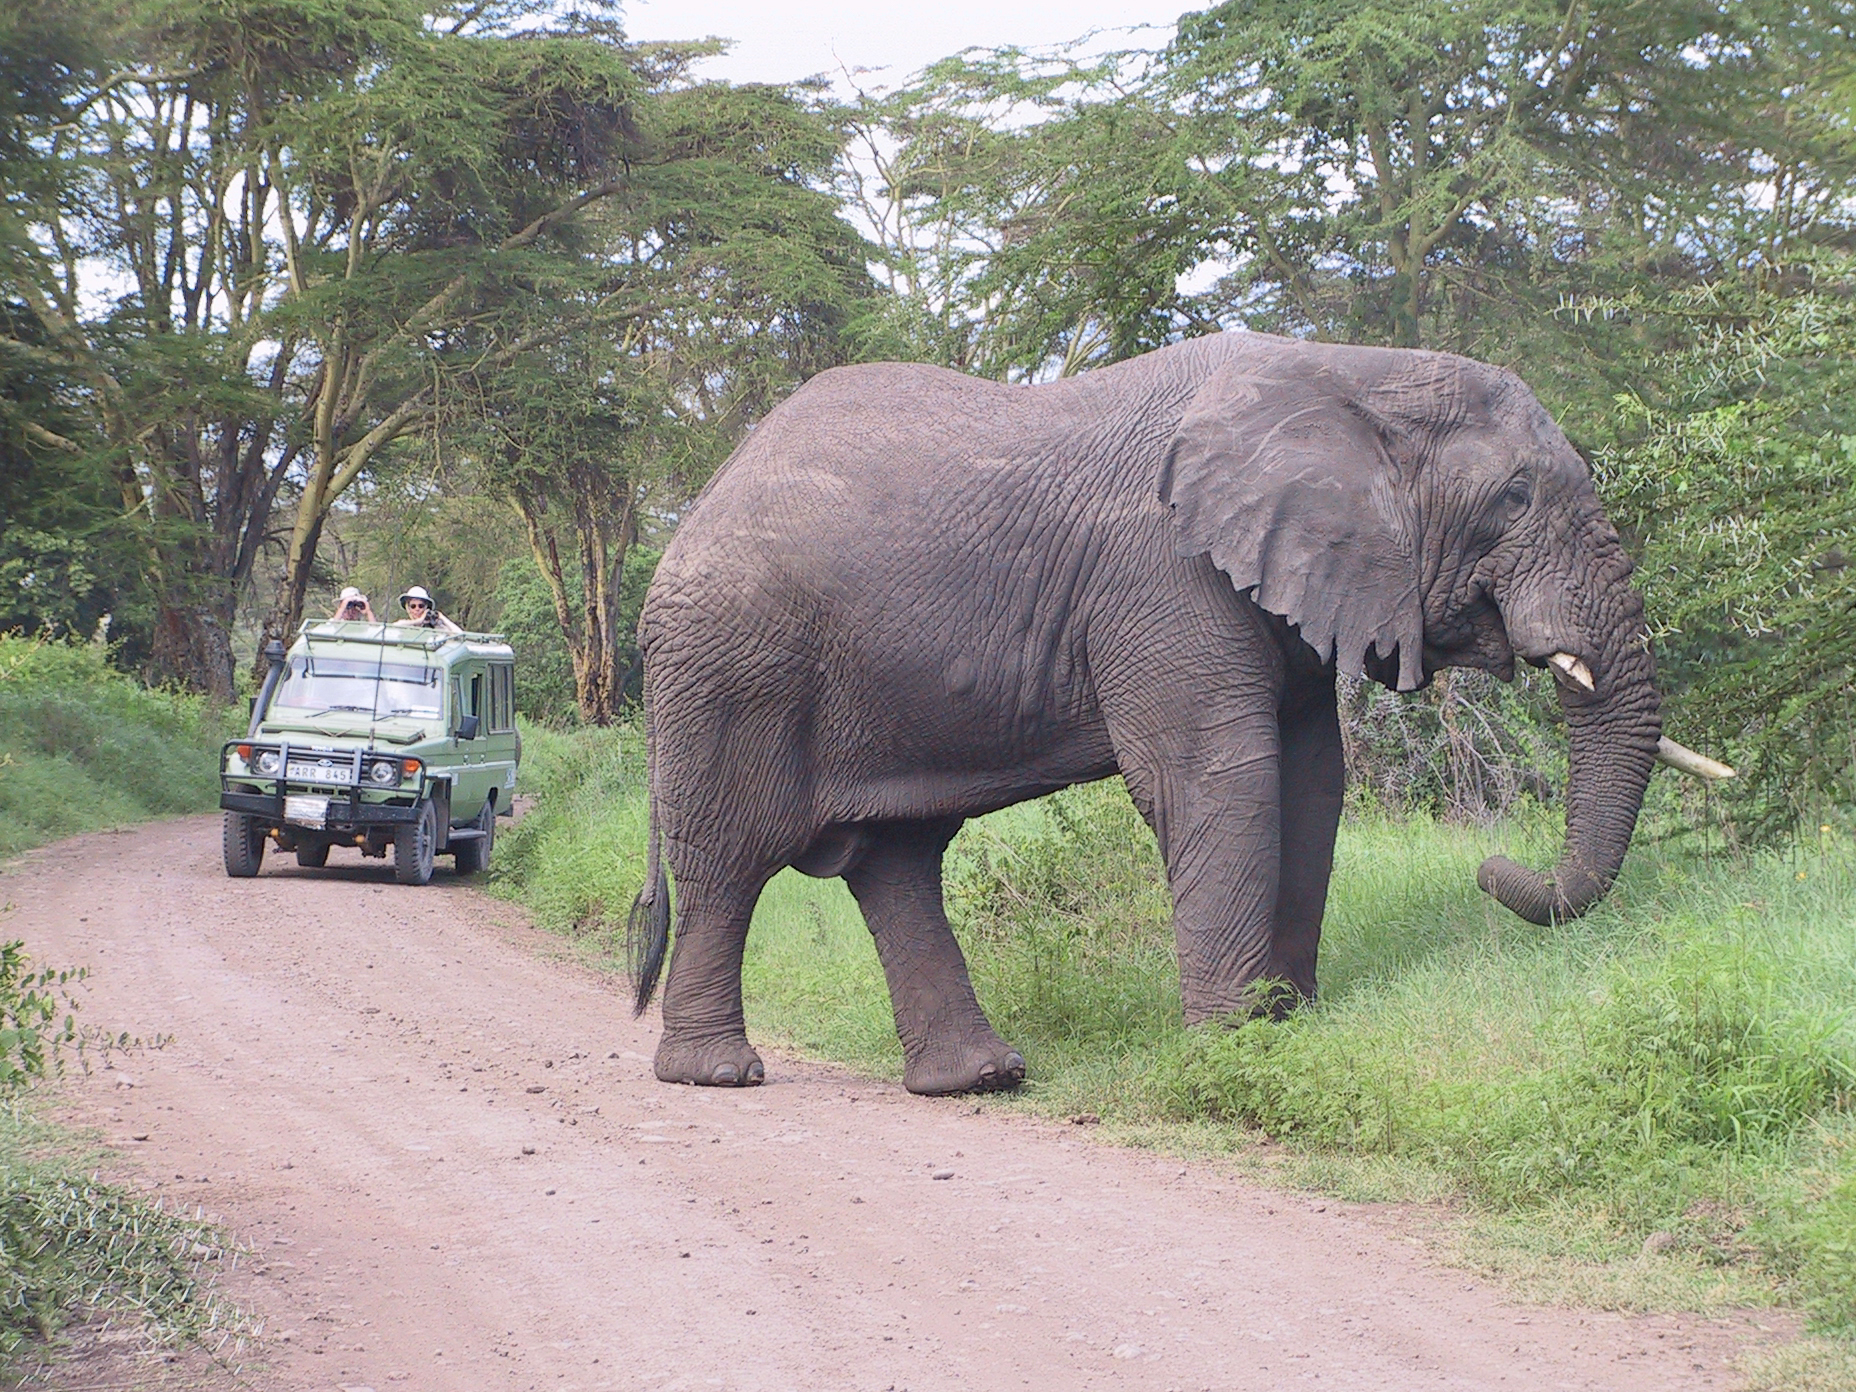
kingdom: Animalia
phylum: Chordata
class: Mammalia
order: Proboscidea
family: Elephantidae
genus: Loxodonta
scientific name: Loxodonta africana
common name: African elephant
